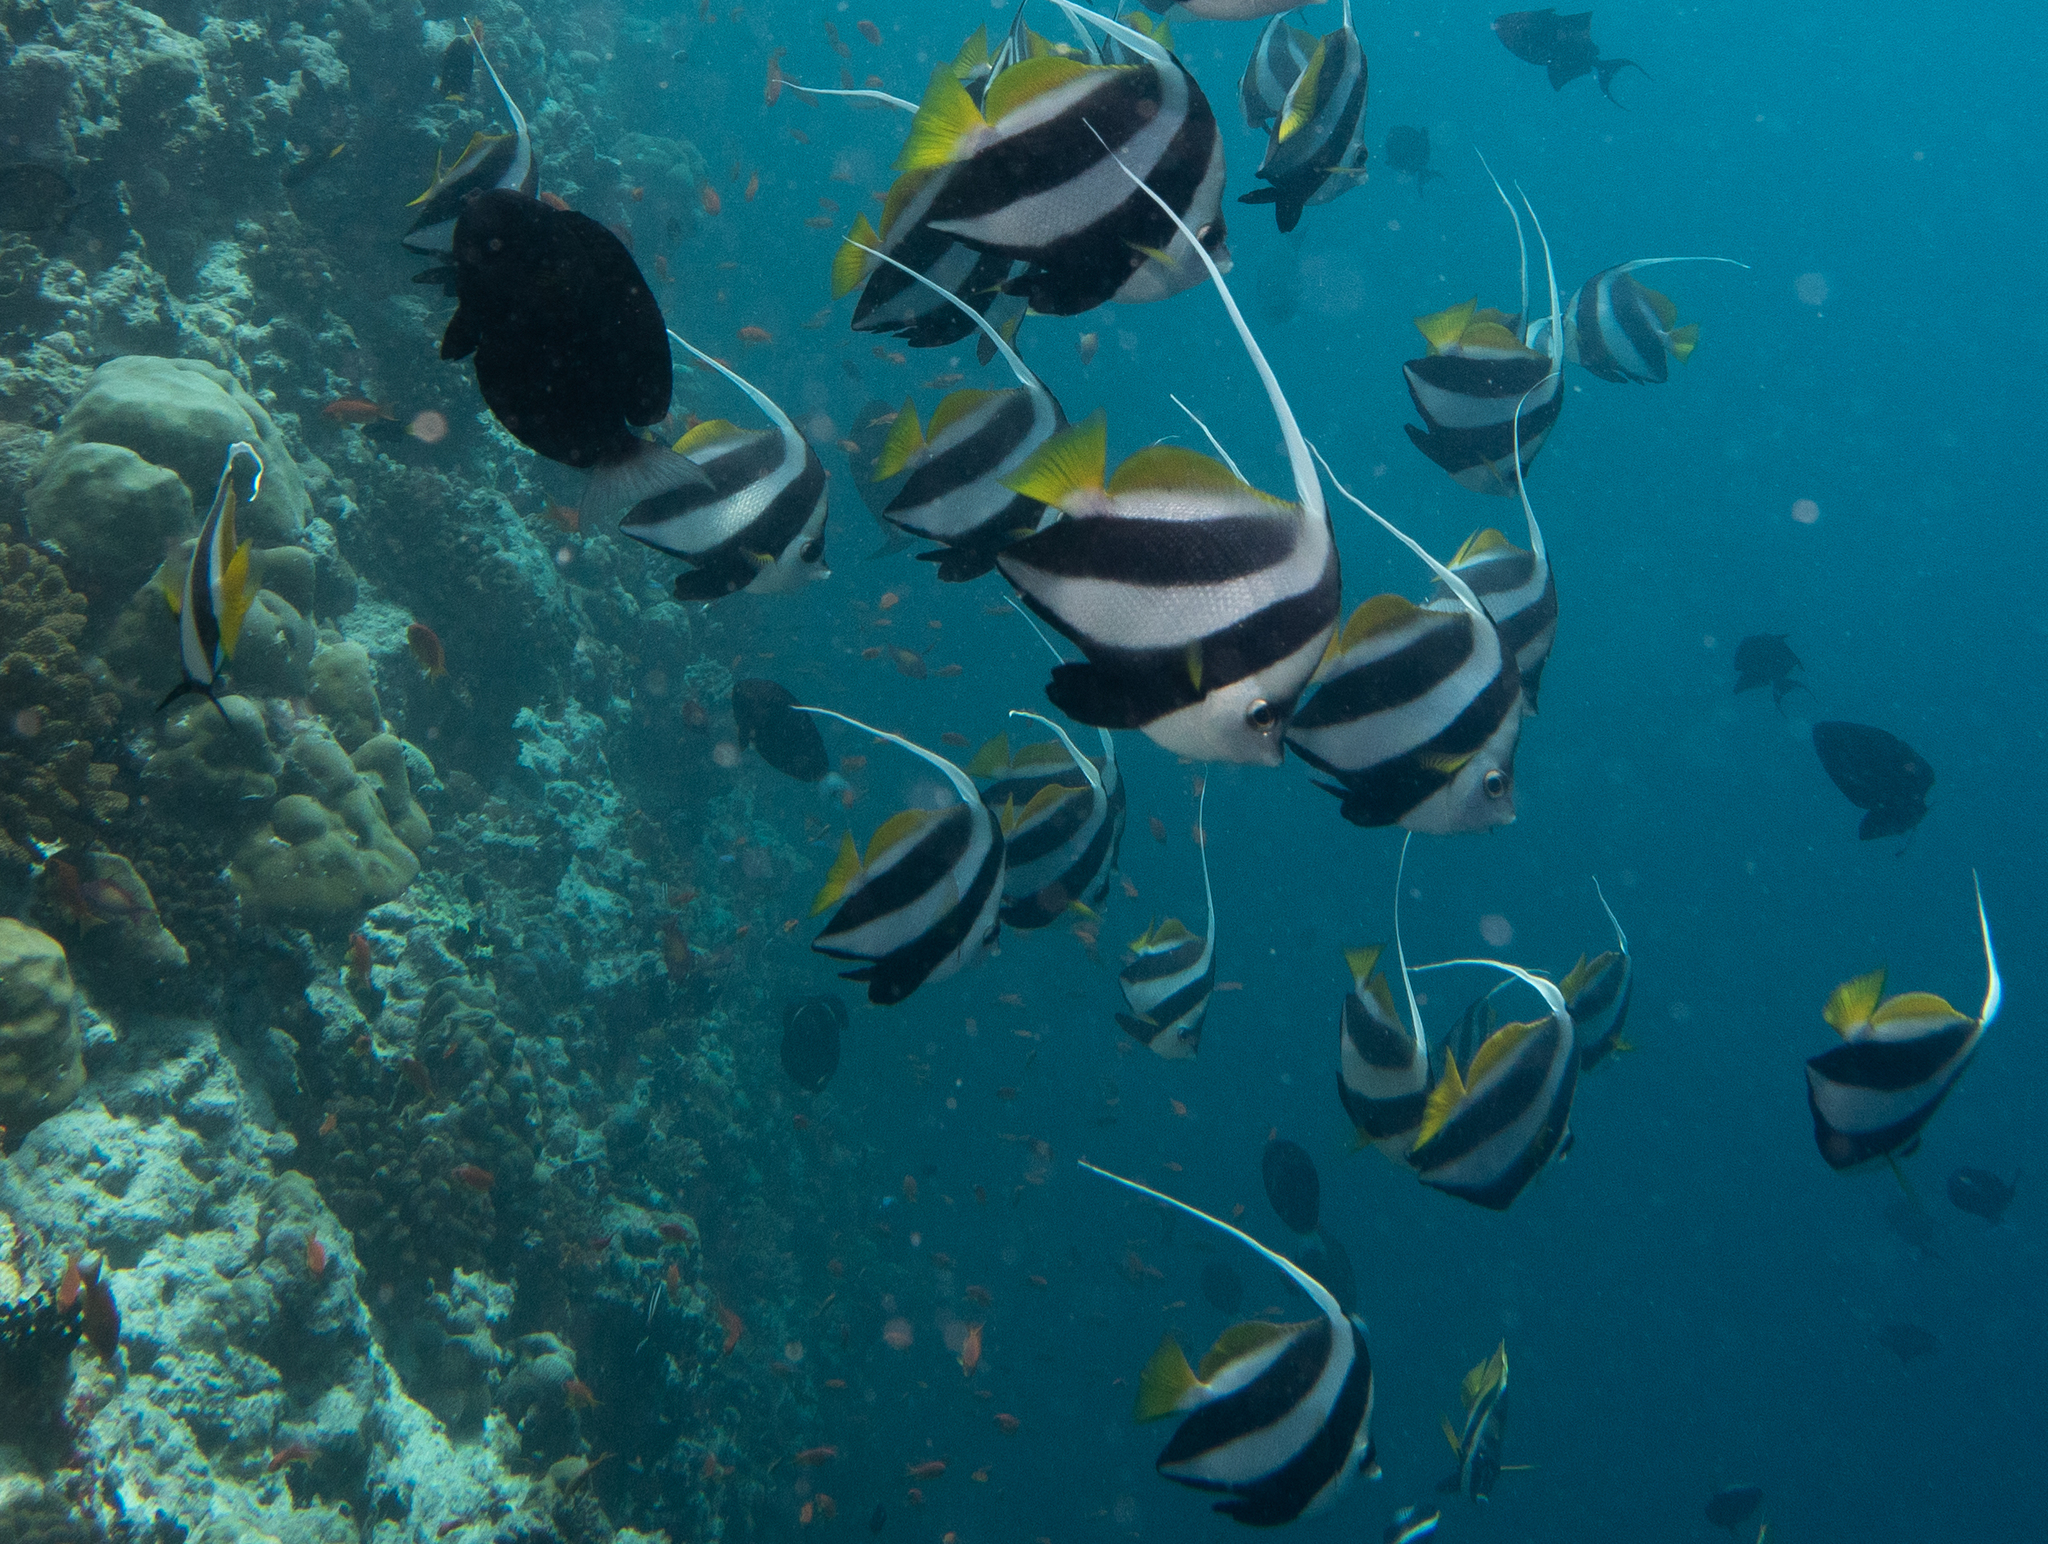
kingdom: Animalia
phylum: Chordata
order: Perciformes
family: Chaetodontidae
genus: Heniochus
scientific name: Heniochus diphreutes
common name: Pennantfish
